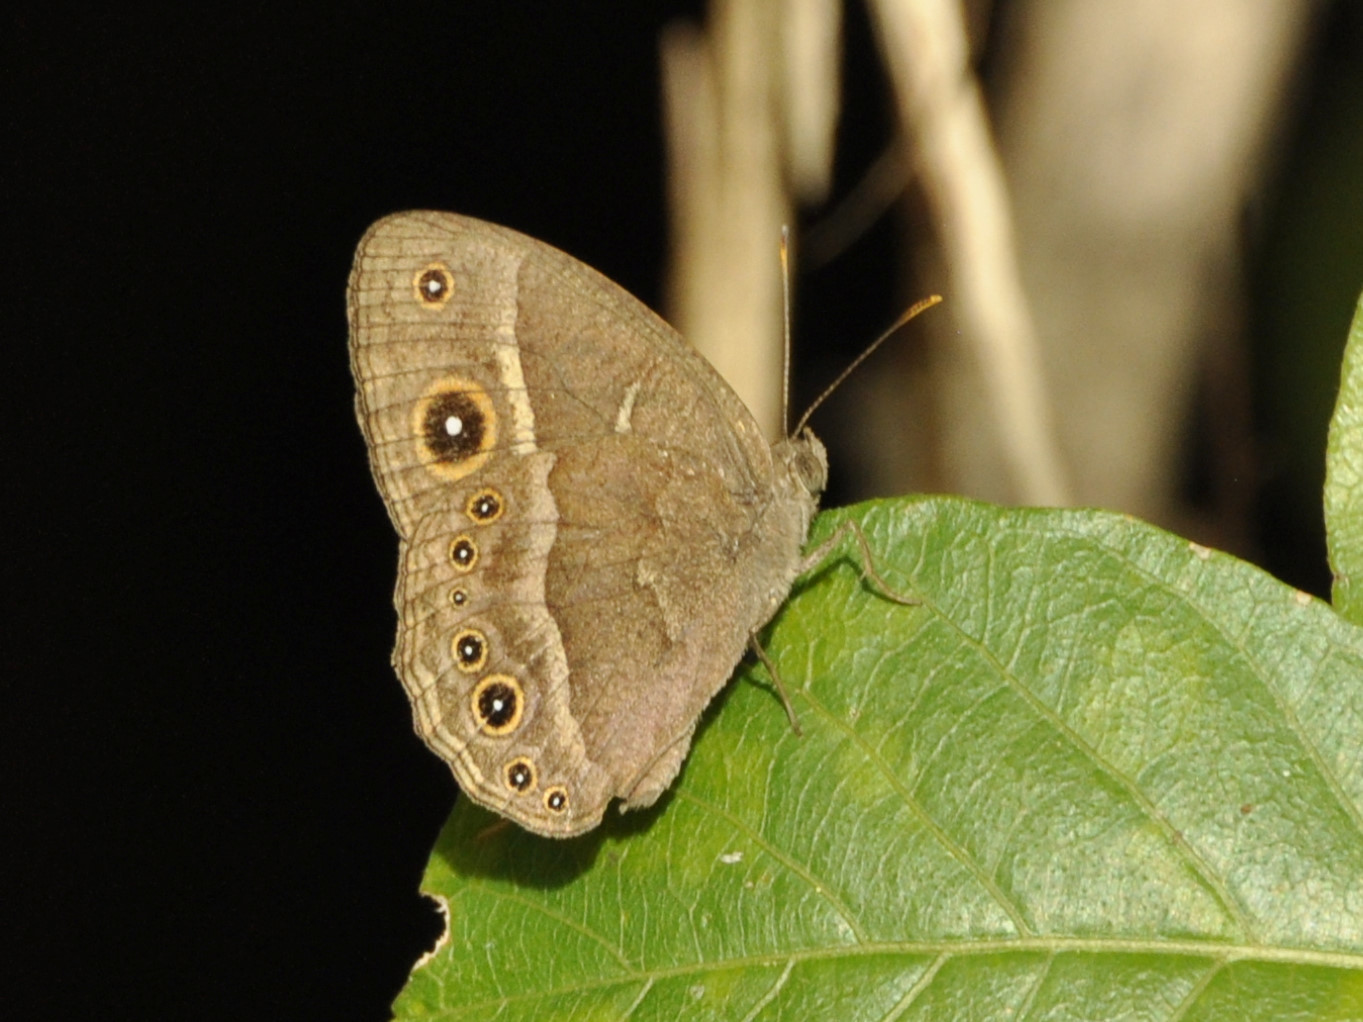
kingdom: Animalia
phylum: Arthropoda
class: Insecta
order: Lepidoptera
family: Nymphalidae
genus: Mycalesis
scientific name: Mycalesis anynana
